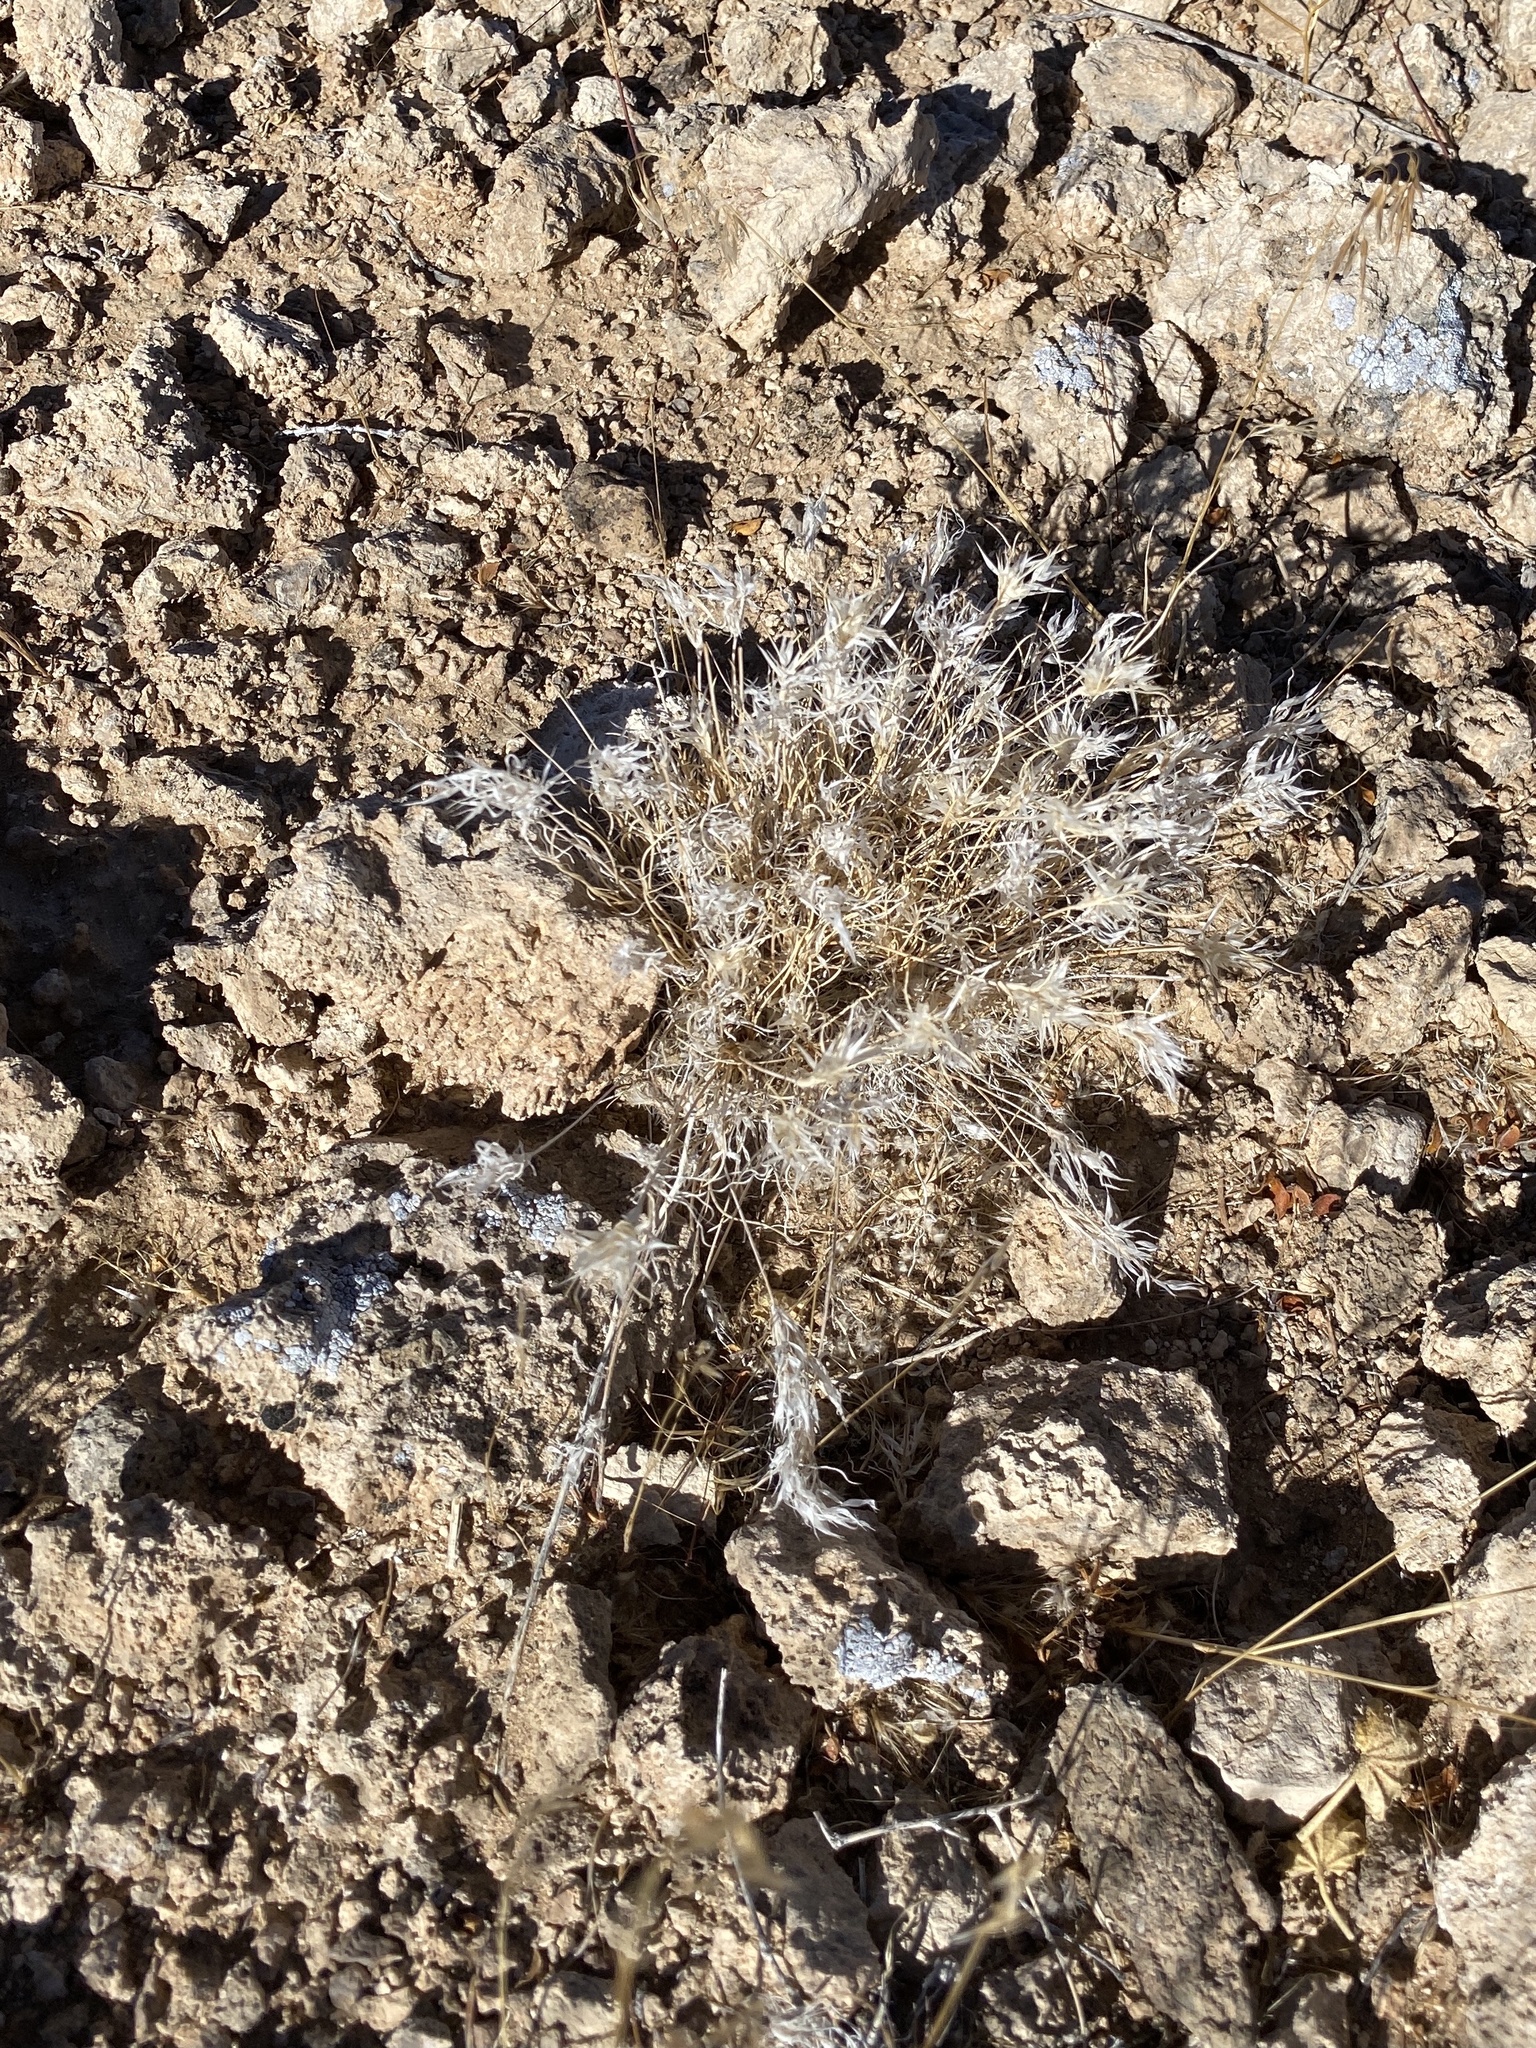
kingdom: Plantae
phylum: Tracheophyta
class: Liliopsida
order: Poales
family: Poaceae
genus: Dasyochloa
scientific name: Dasyochloa pulchella
